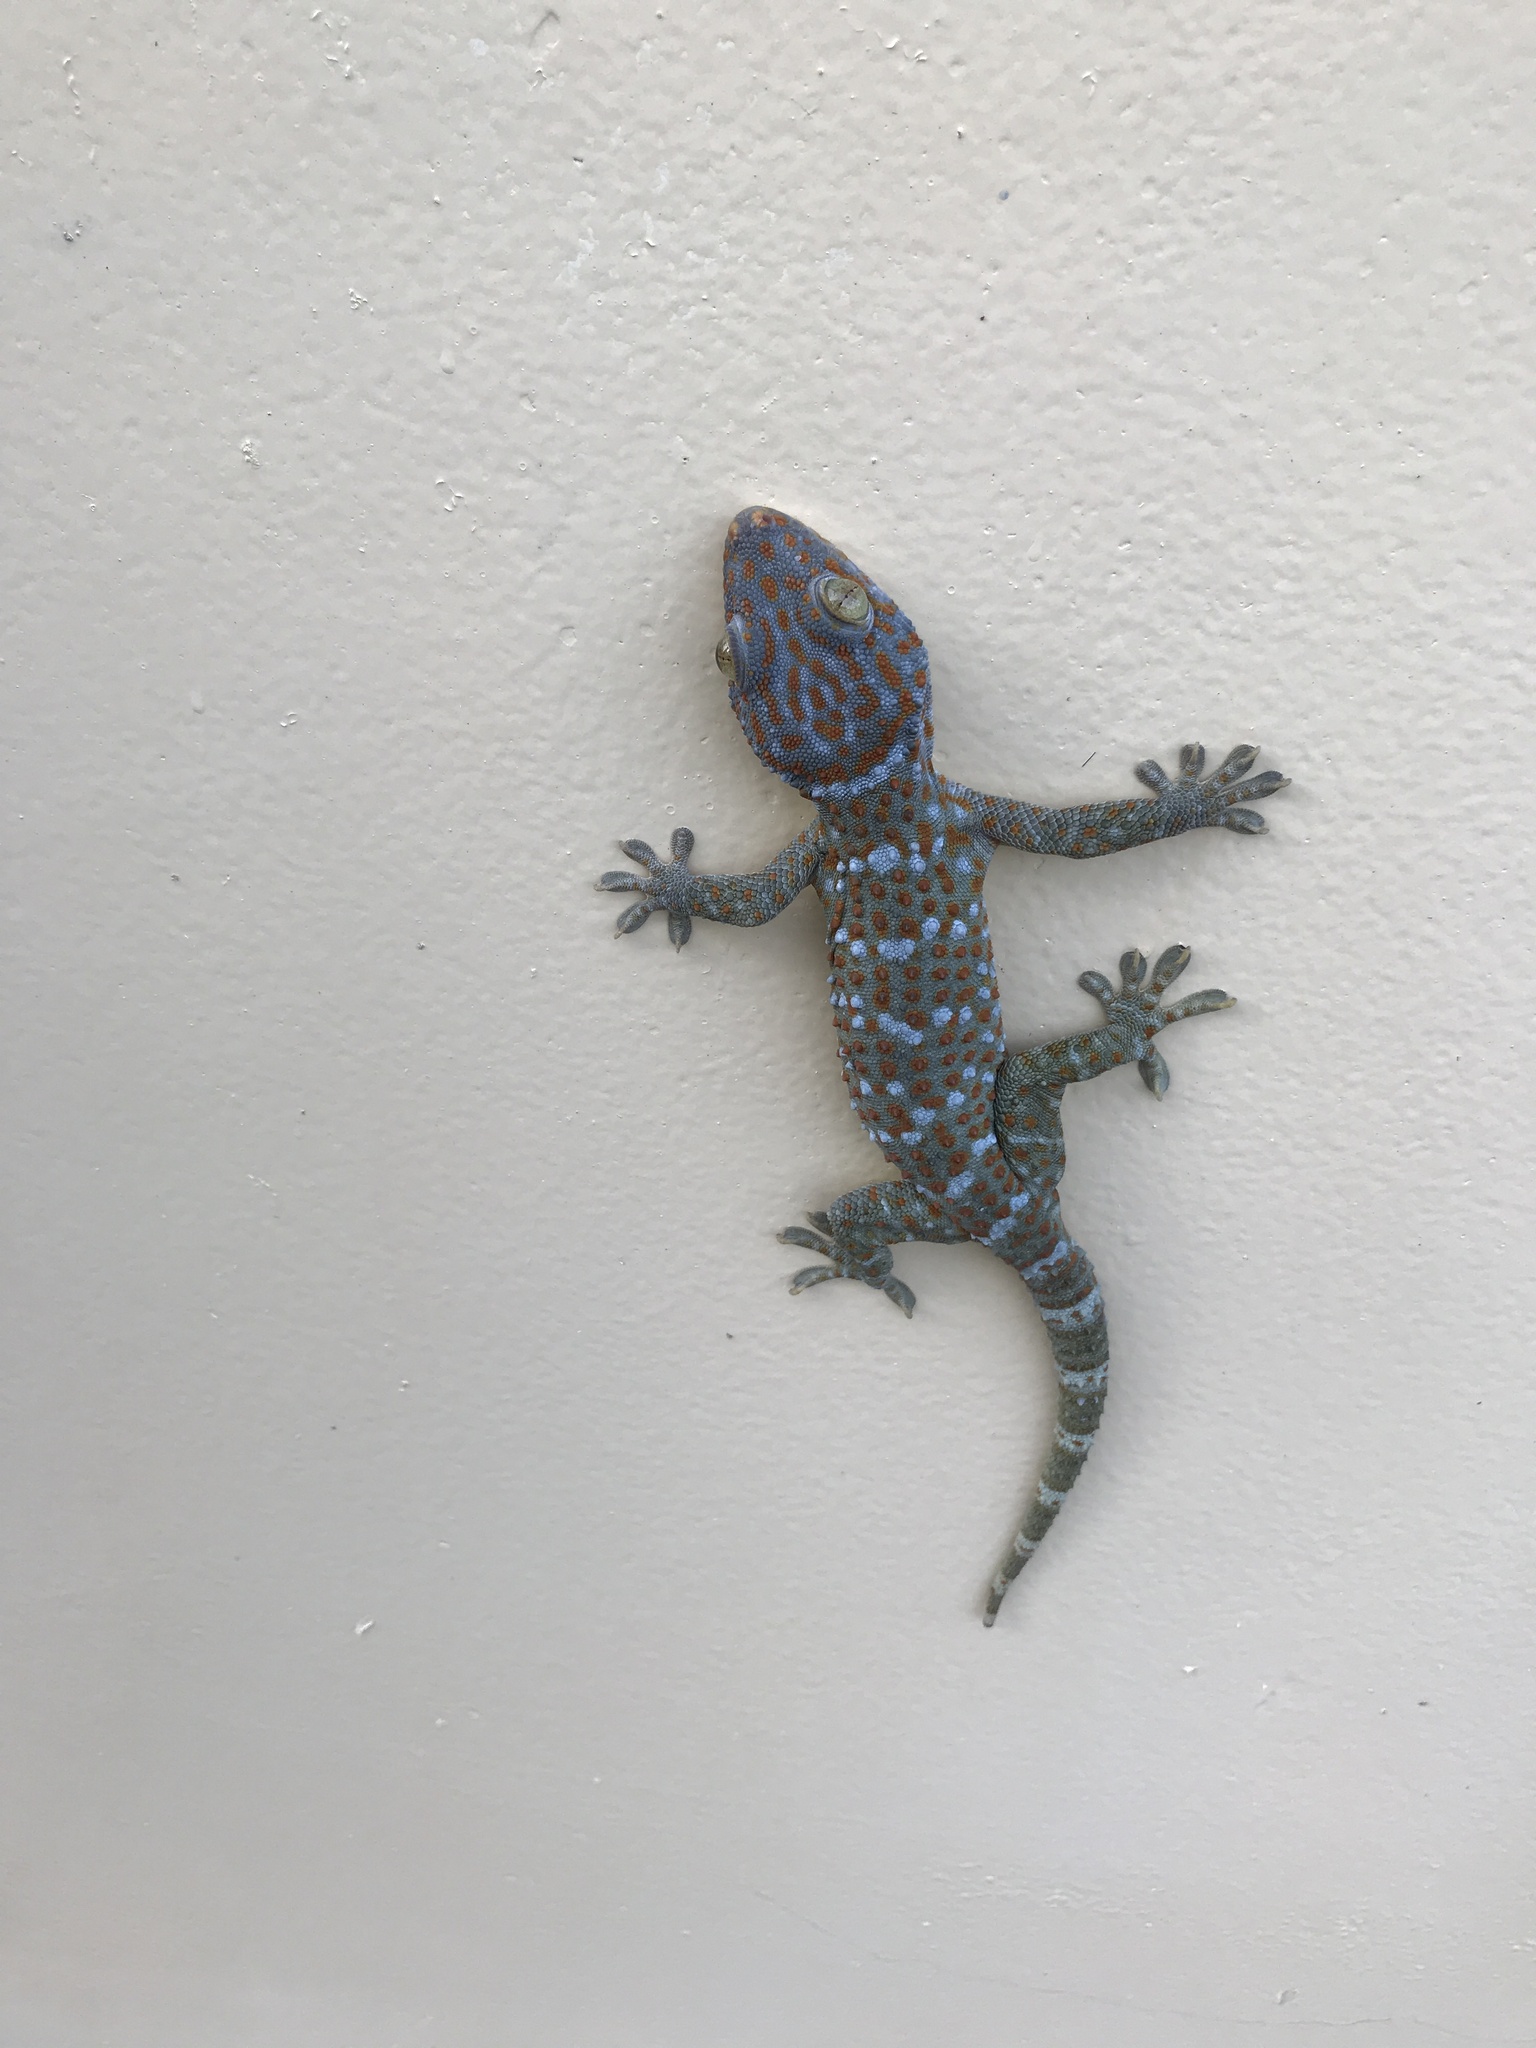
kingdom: Animalia
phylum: Chordata
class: Squamata
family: Gekkonidae
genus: Gekko
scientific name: Gekko gecko
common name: Tokay gecko
